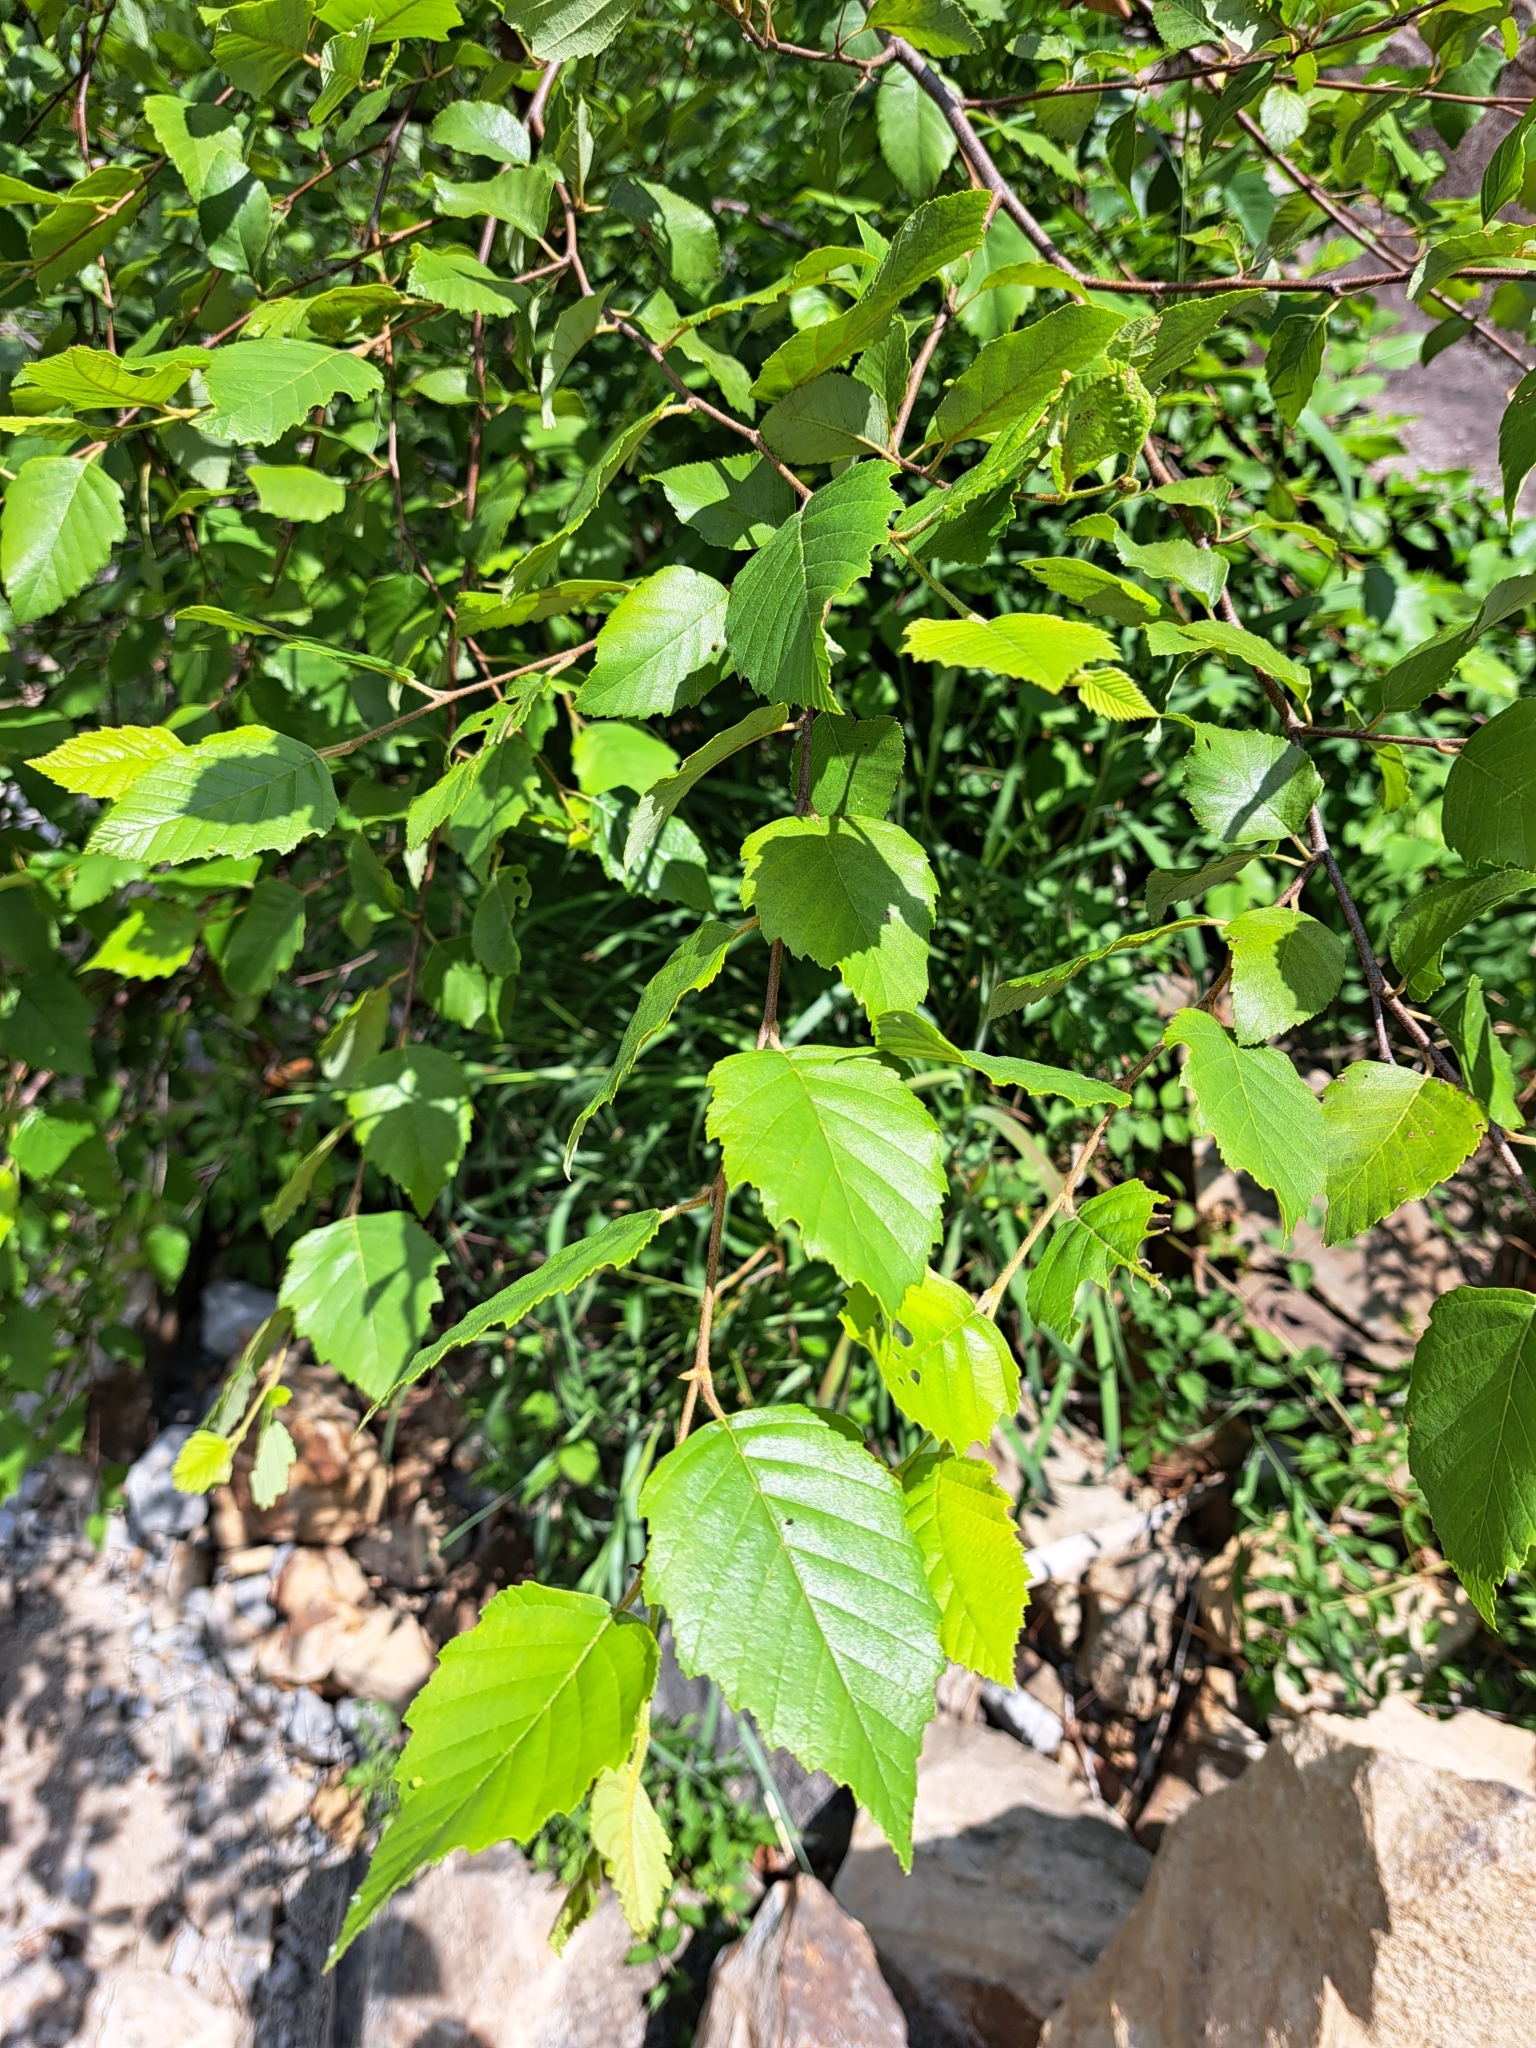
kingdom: Plantae
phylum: Tracheophyta
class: Magnoliopsida
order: Fagales
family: Betulaceae
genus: Betula
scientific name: Betula nigra
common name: Black birch
